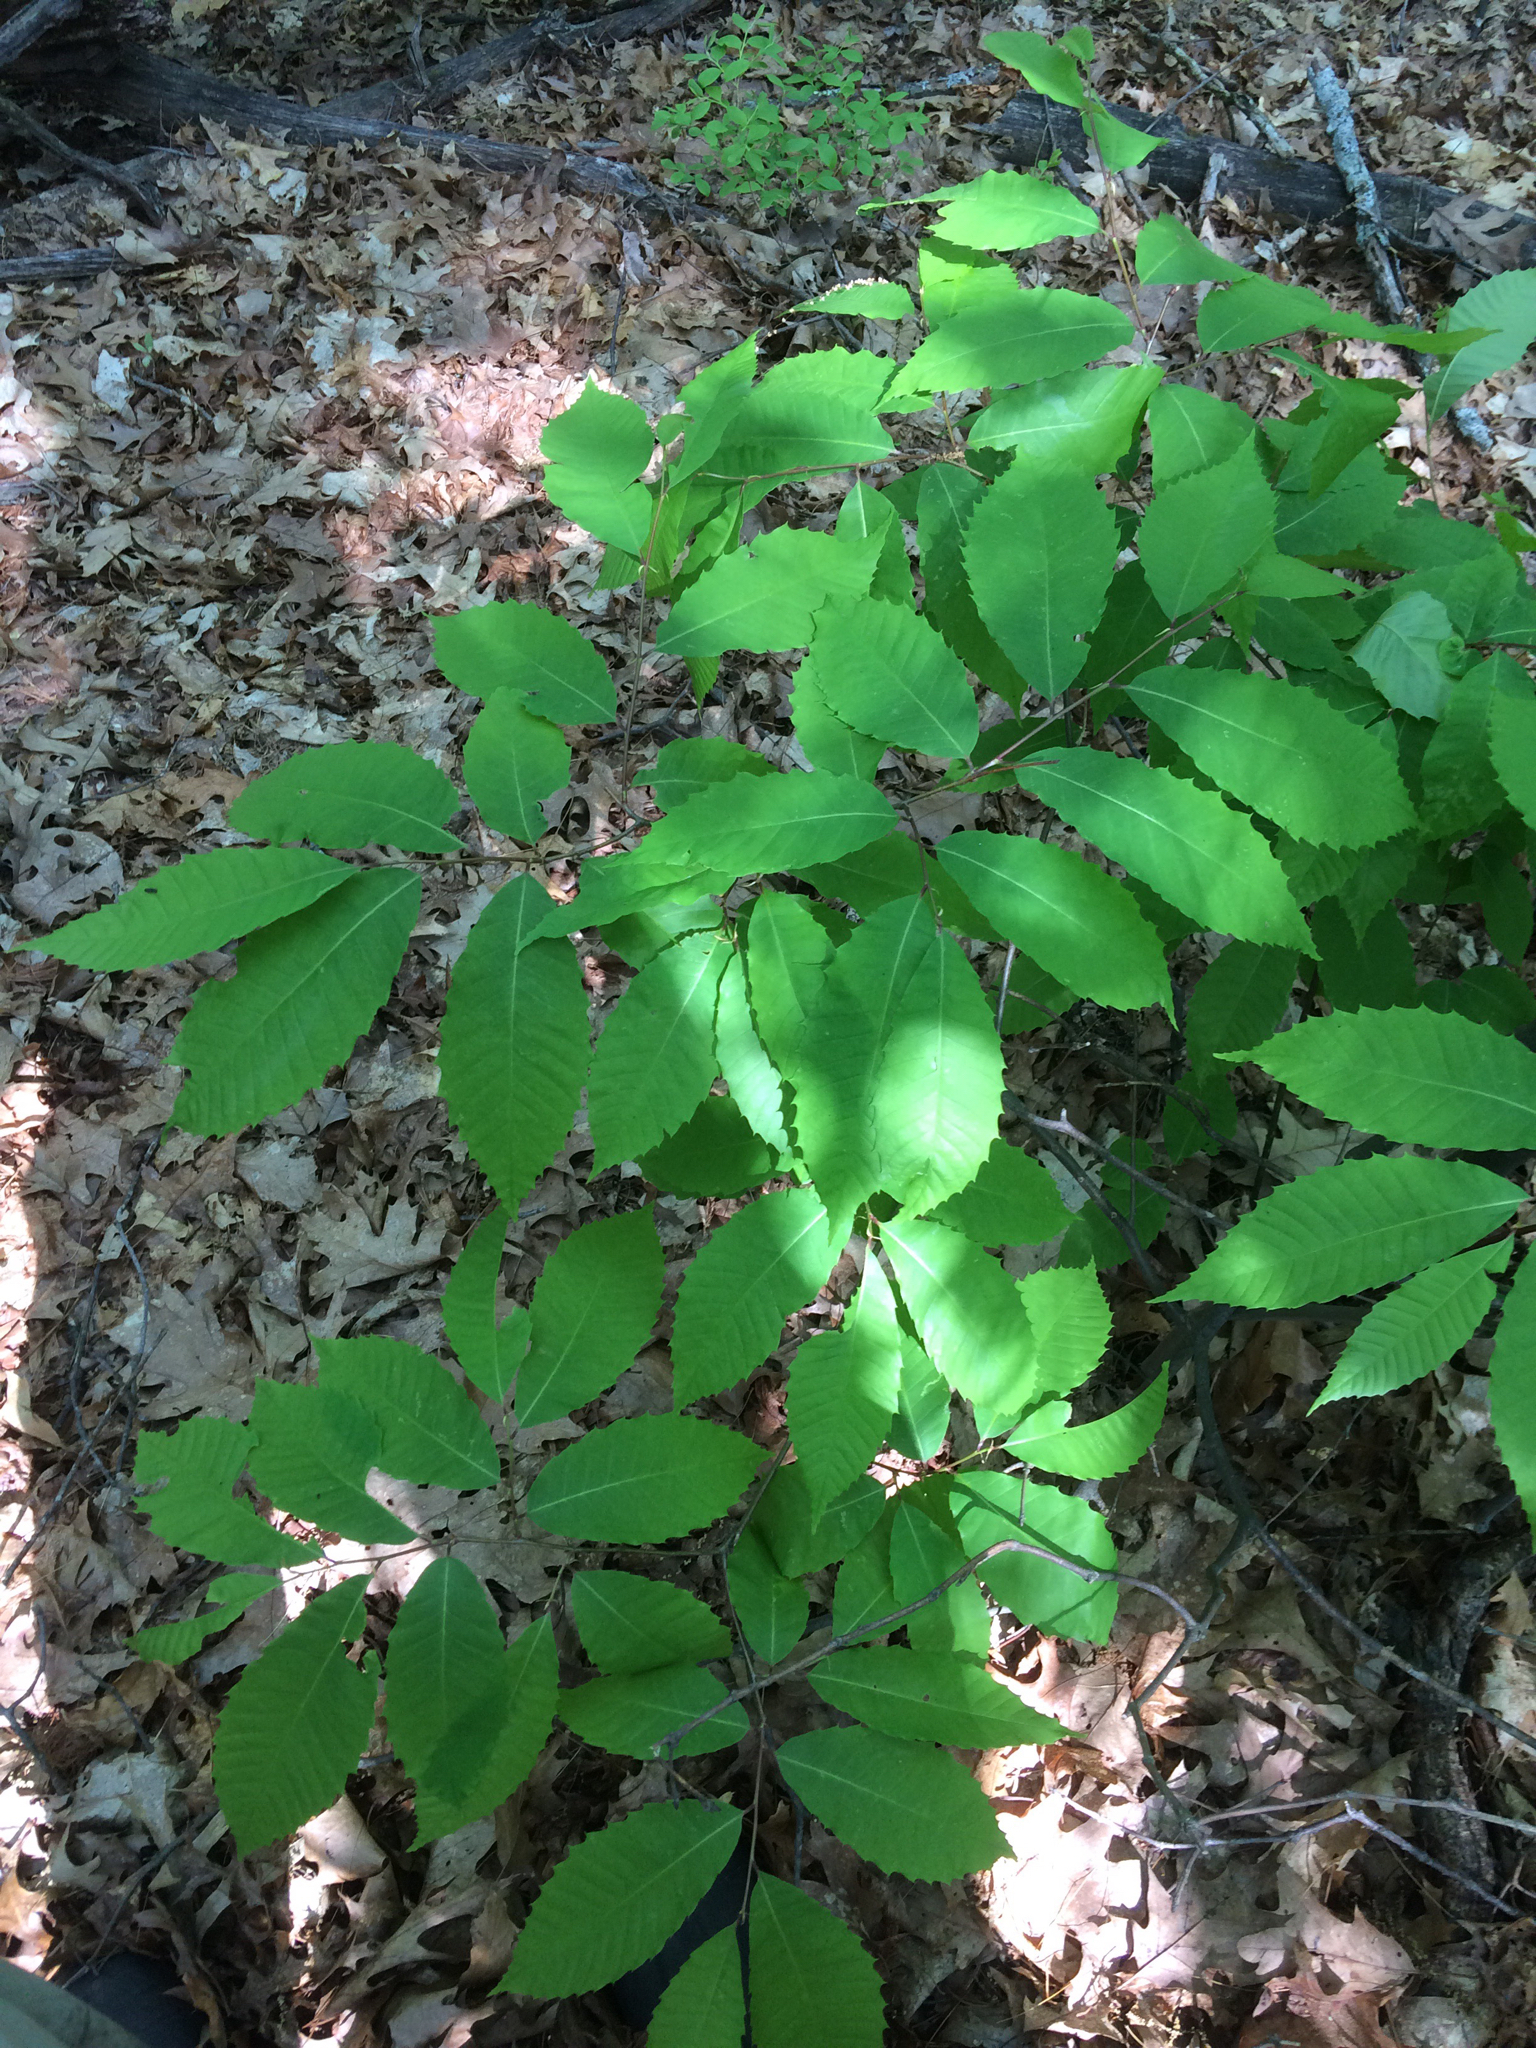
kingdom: Plantae
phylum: Tracheophyta
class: Magnoliopsida
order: Fagales
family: Fagaceae
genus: Castanea
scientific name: Castanea dentata
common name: American chestnut
